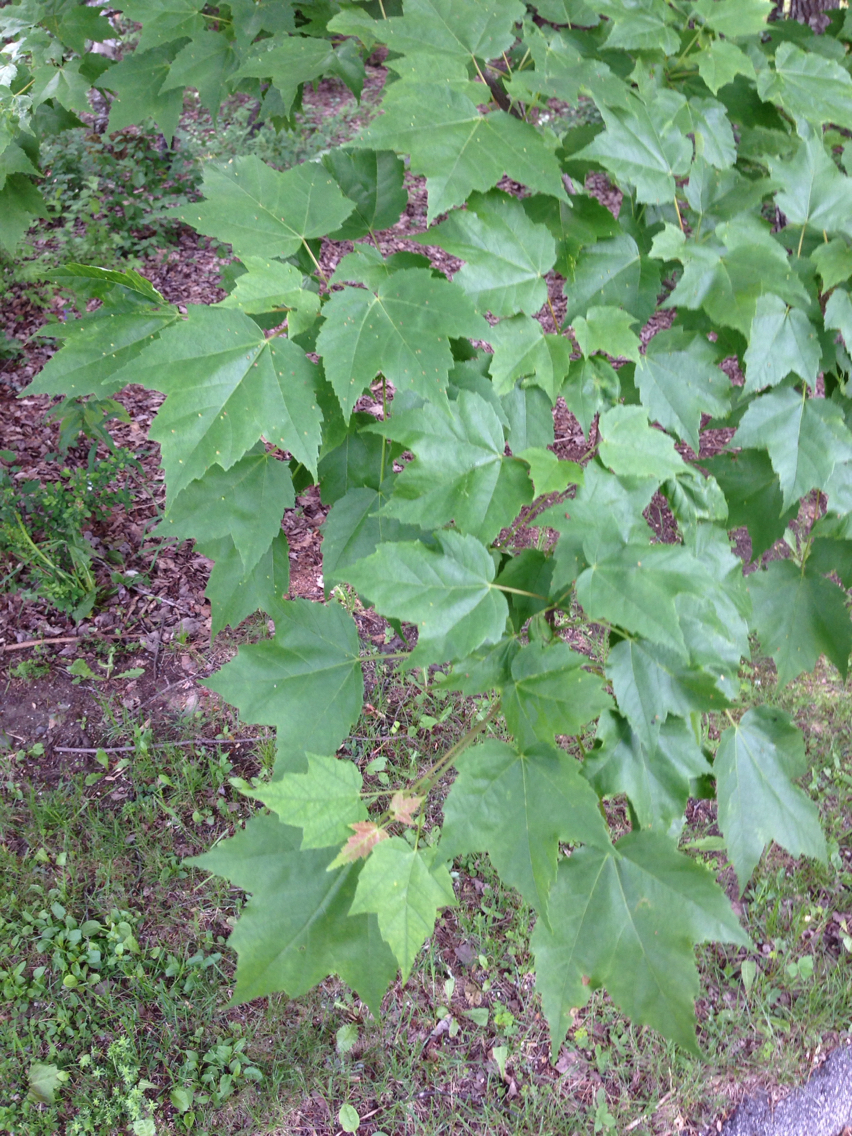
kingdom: Plantae
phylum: Tracheophyta
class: Magnoliopsida
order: Sapindales
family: Sapindaceae
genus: Acer
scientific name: Acer rubrum
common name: Red maple
